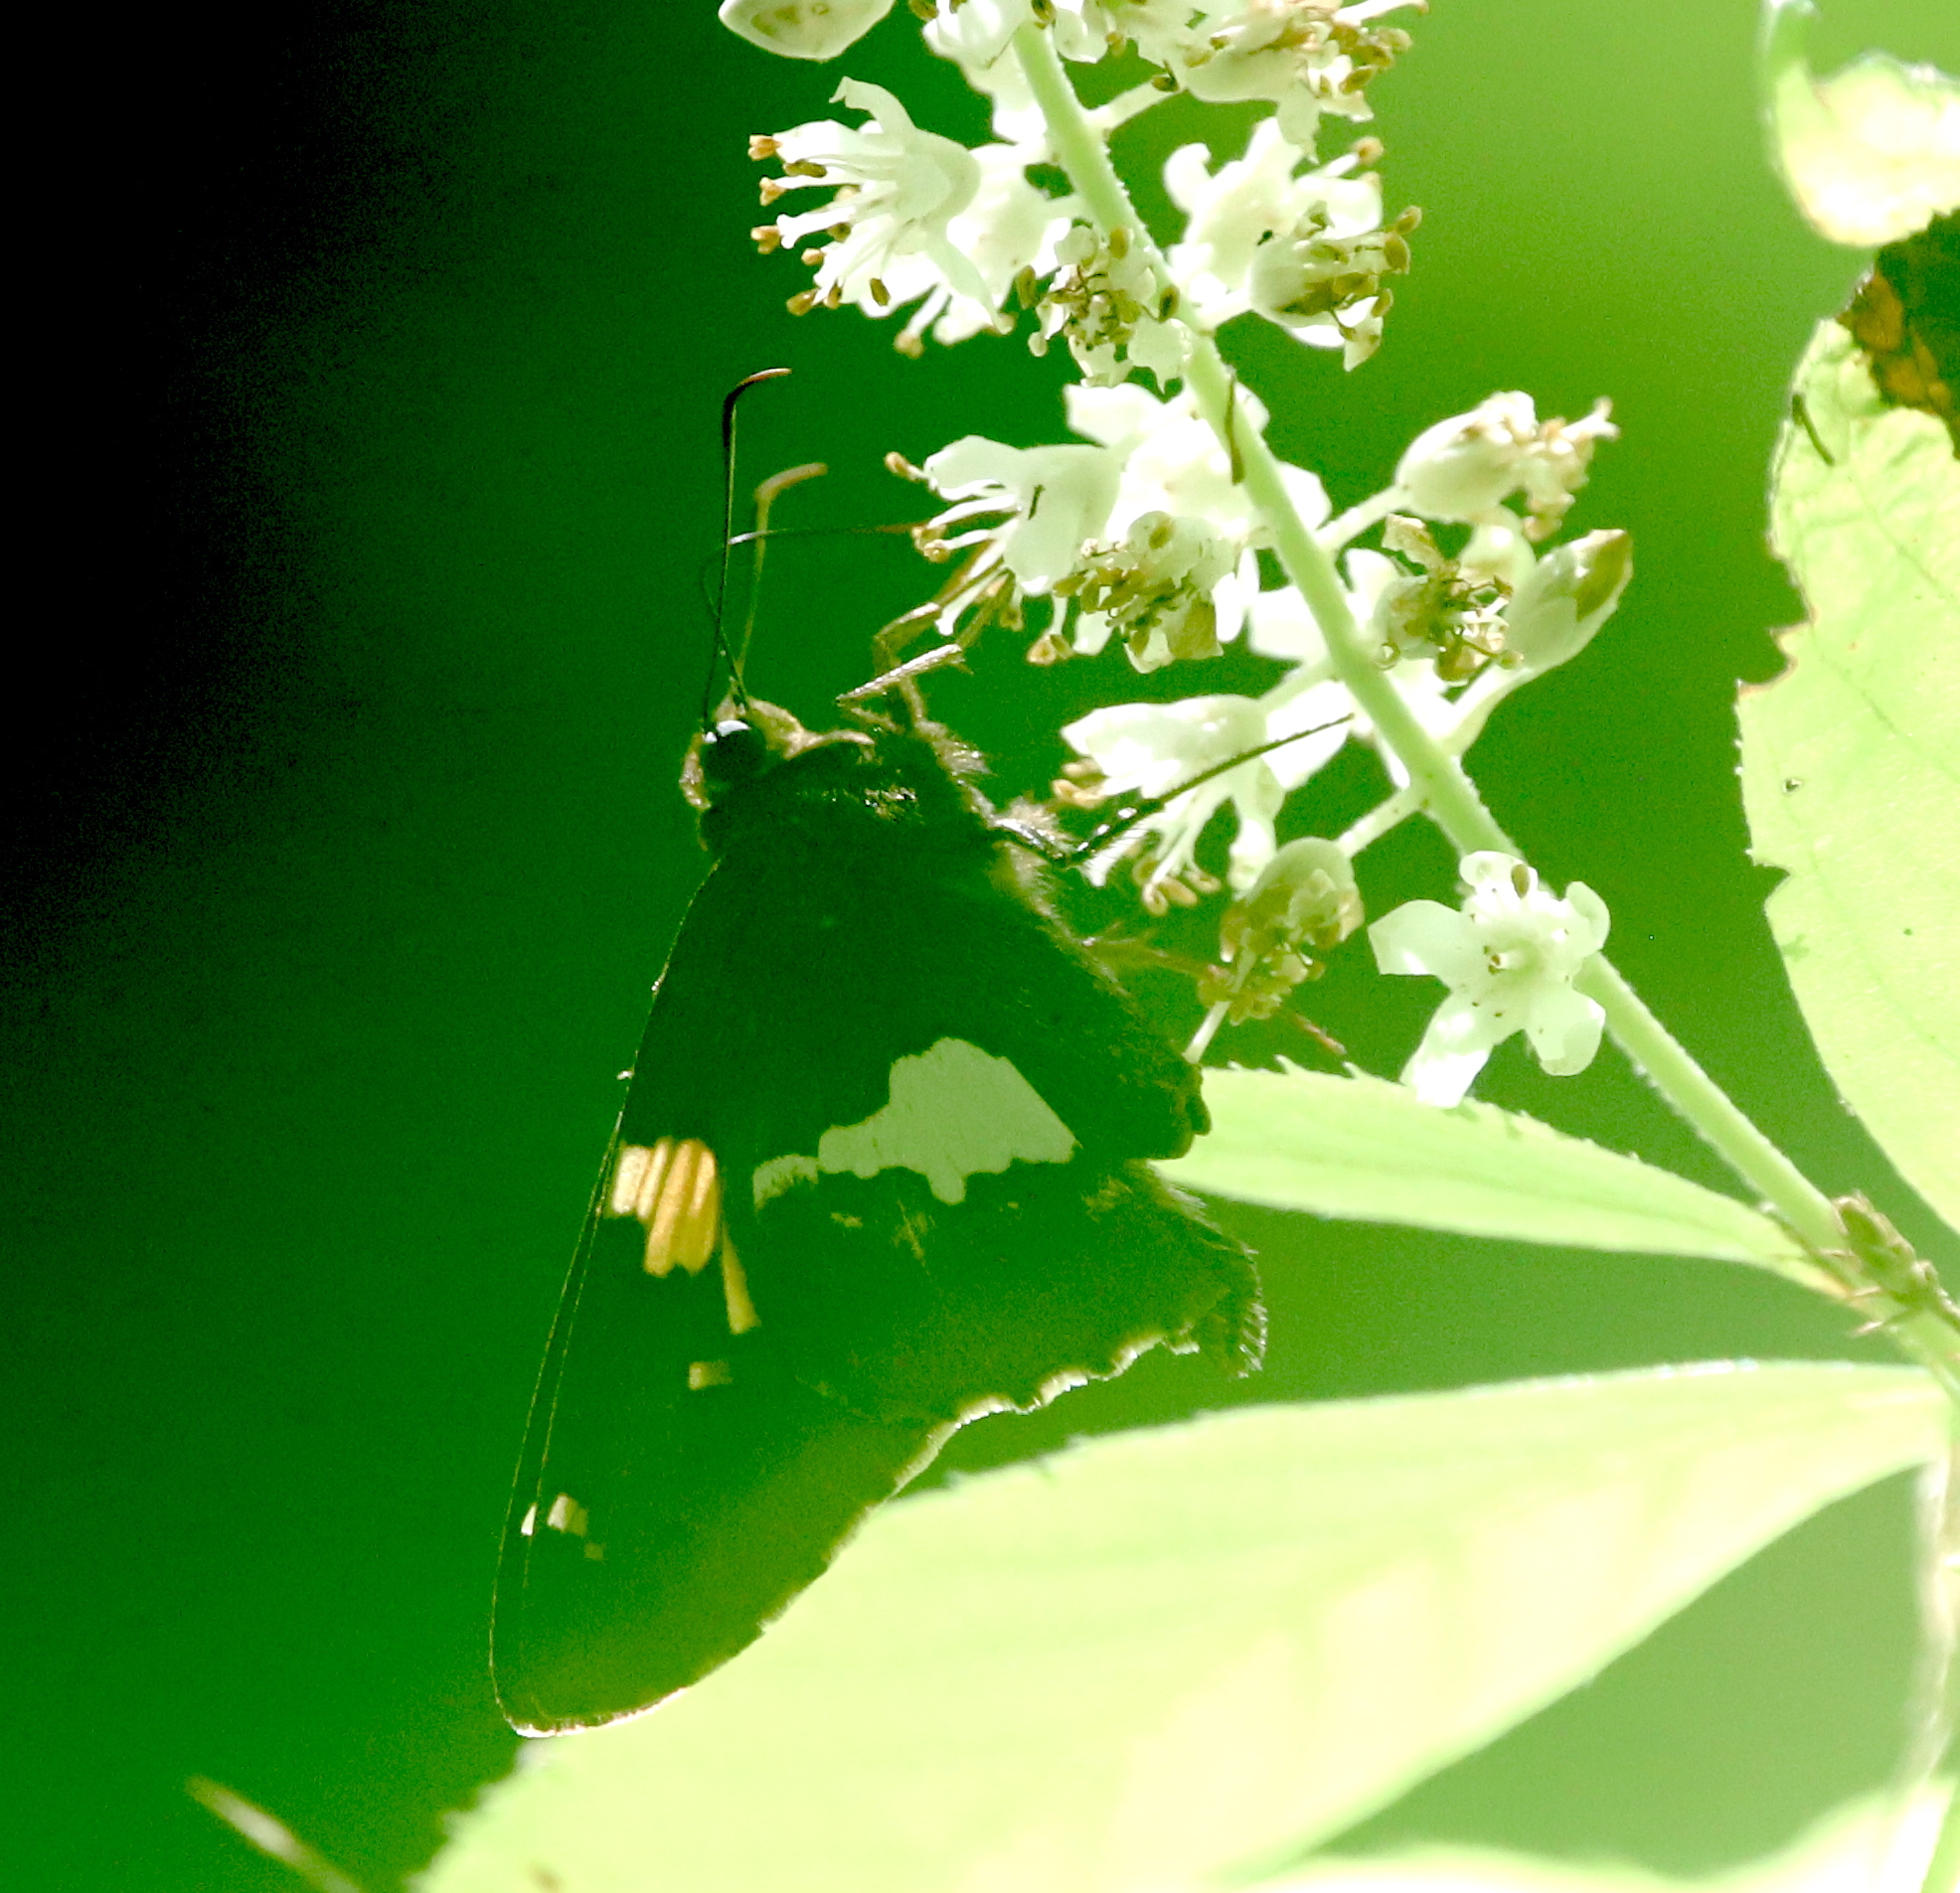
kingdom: Animalia
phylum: Arthropoda
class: Insecta
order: Lepidoptera
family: Hesperiidae
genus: Epargyreus
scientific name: Epargyreus clarus
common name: Silver-spotted skipper
